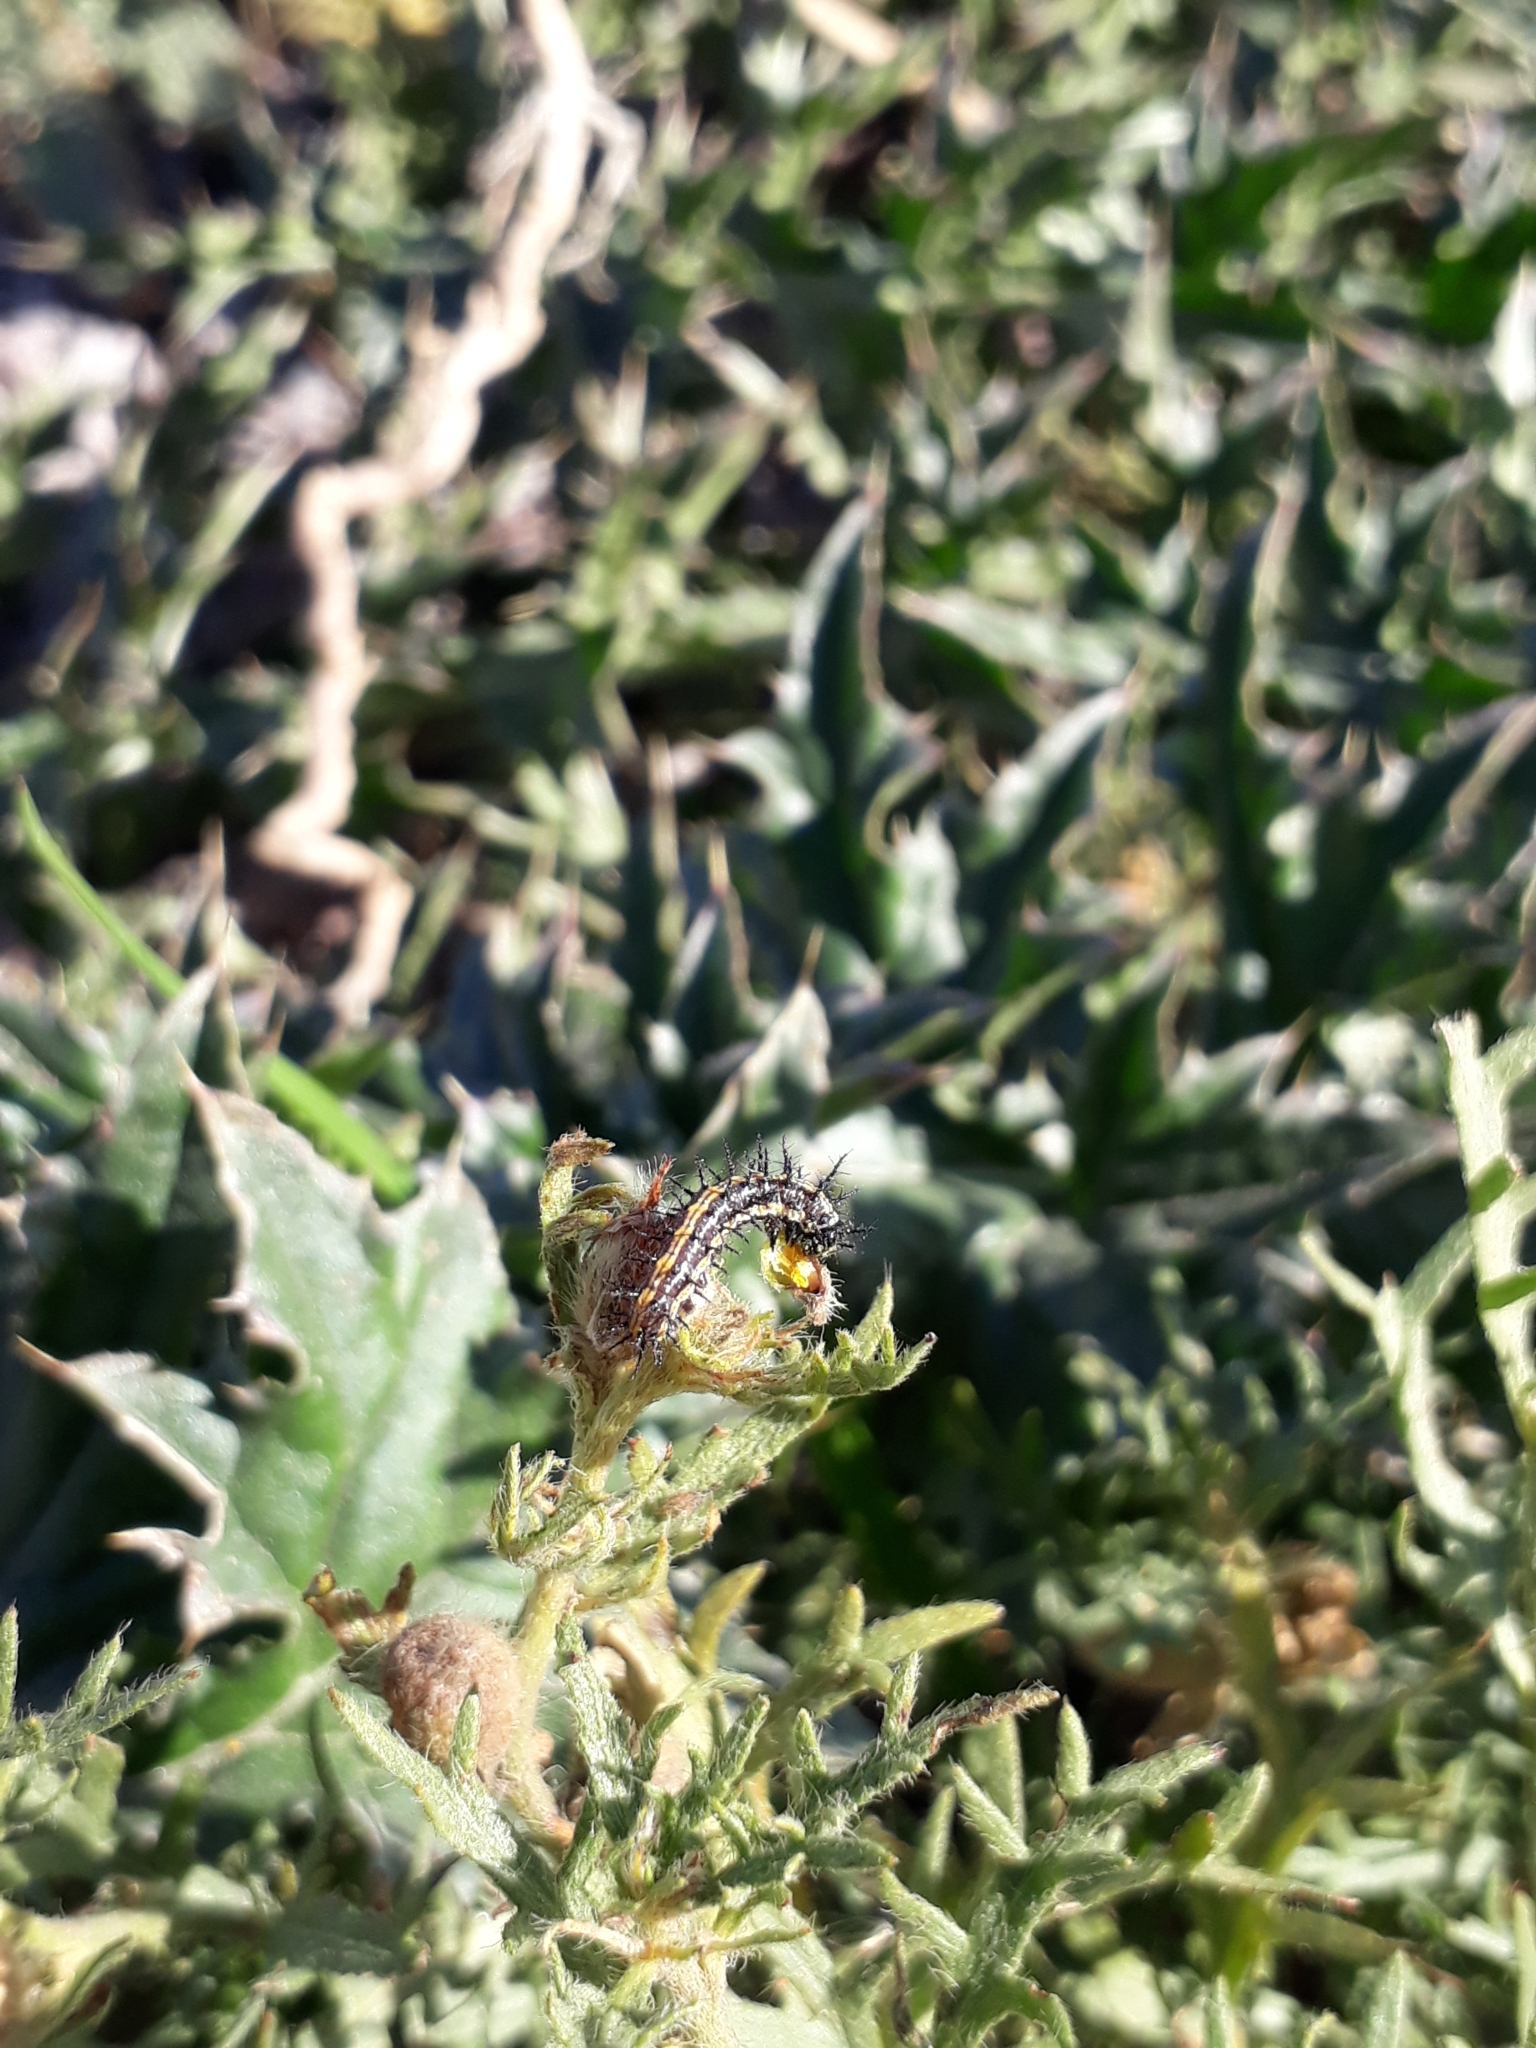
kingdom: Animalia
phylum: Arthropoda
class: Insecta
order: Lepidoptera
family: Nymphalidae
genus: Dione
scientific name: Dione vanillae
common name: Gulf fritillary
